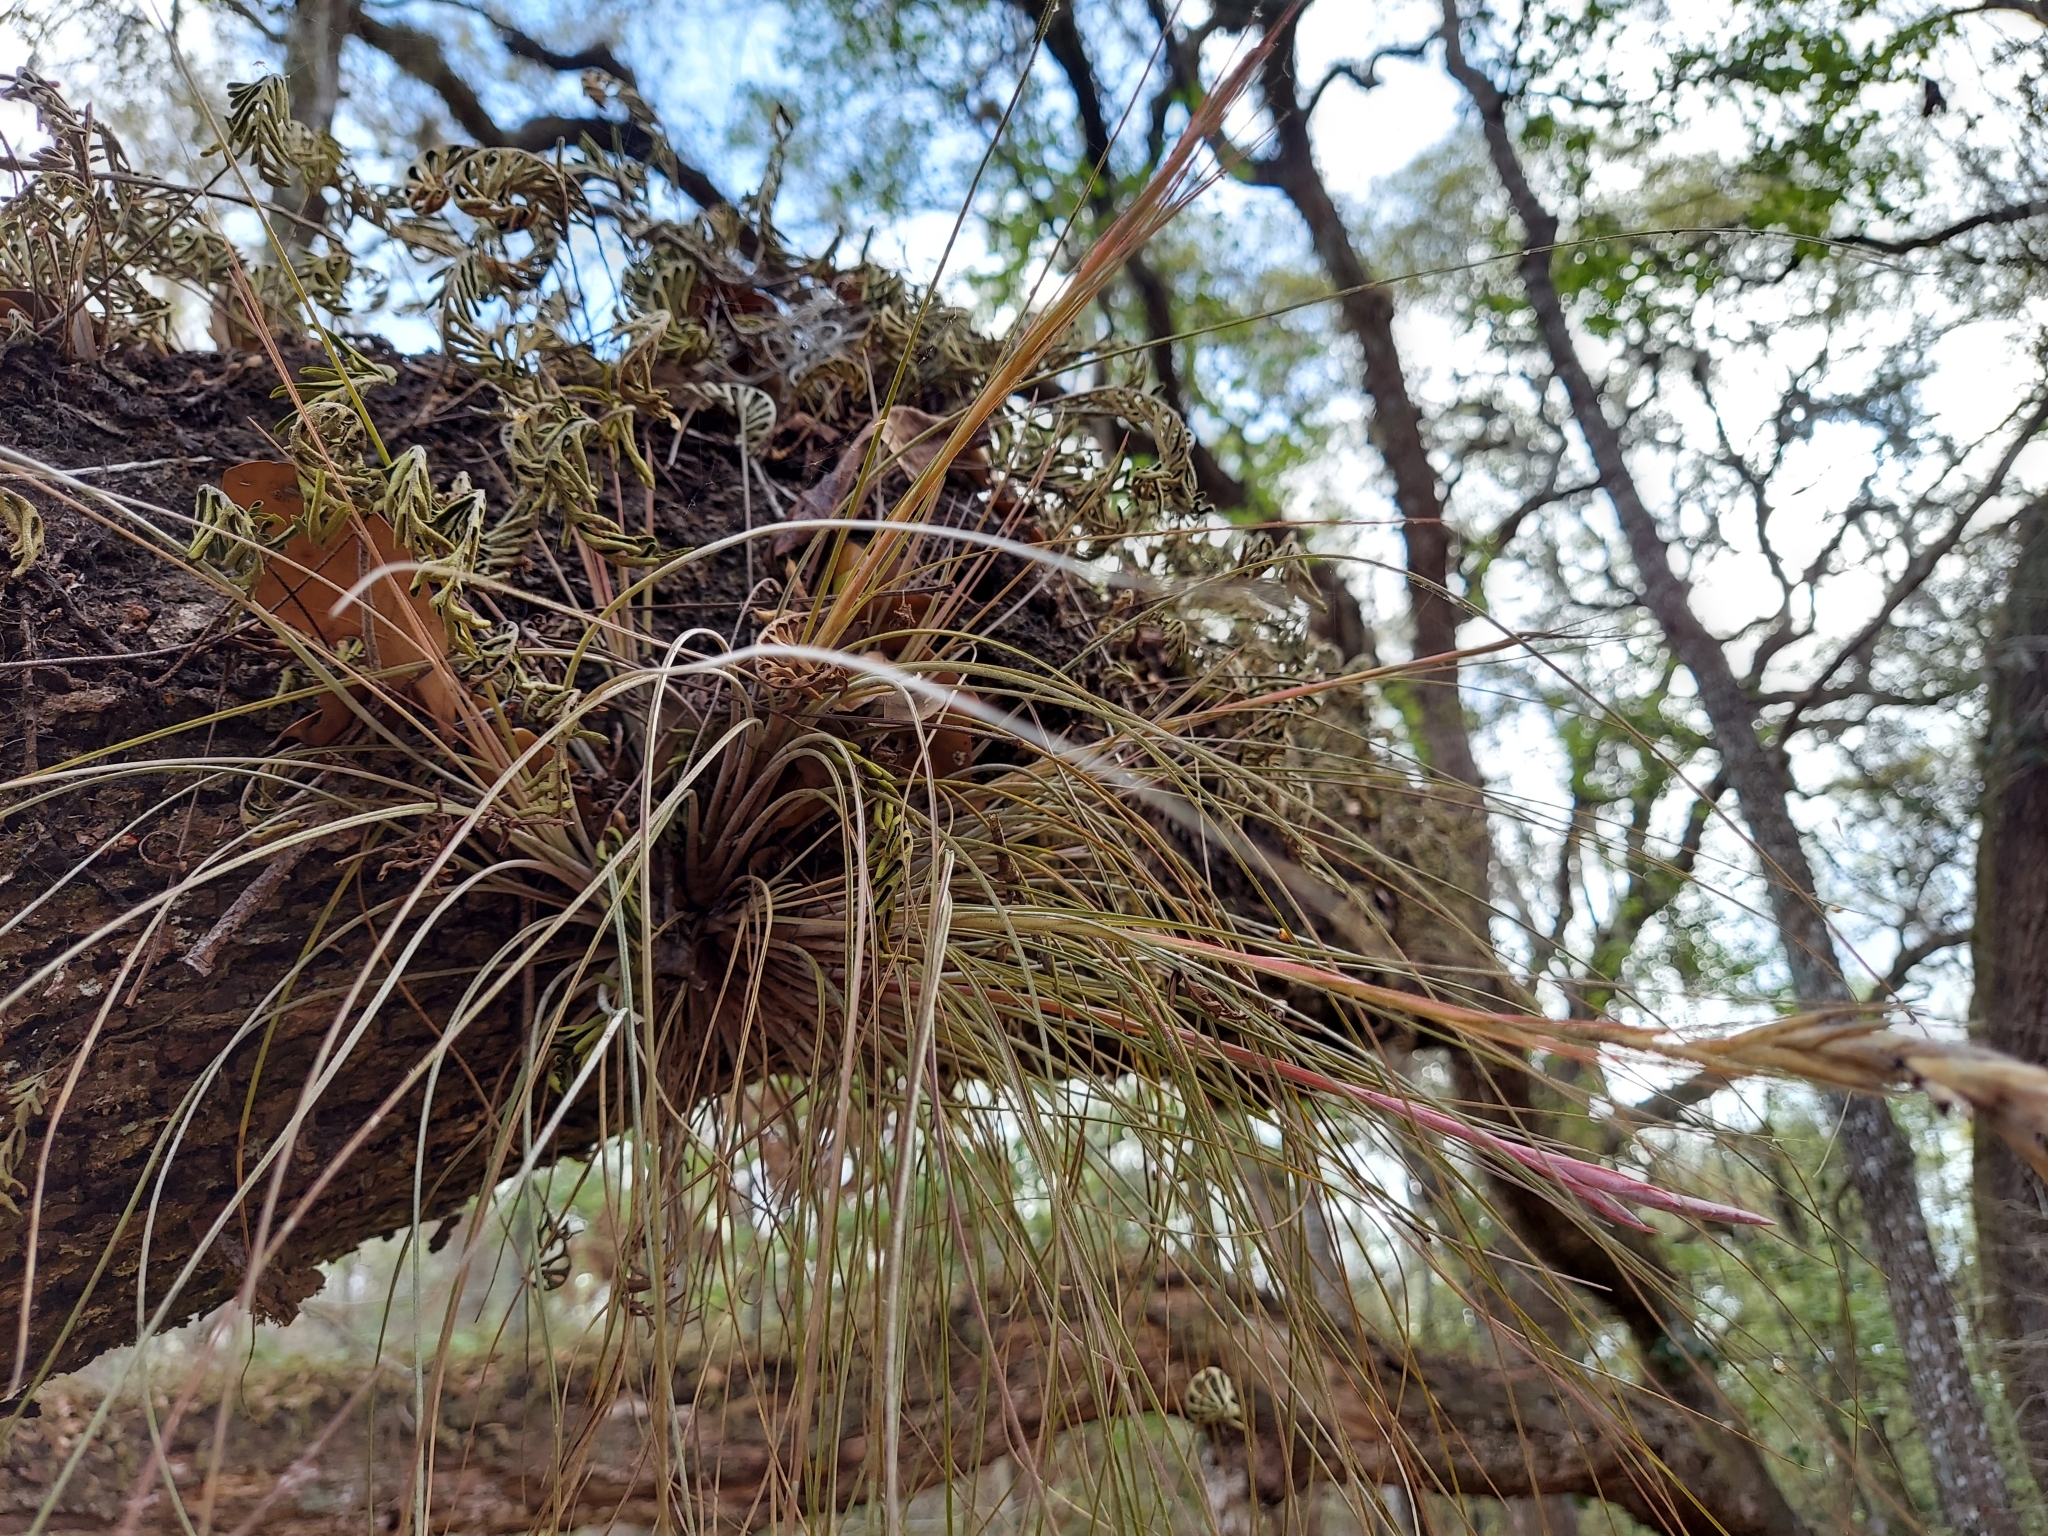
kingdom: Plantae
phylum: Tracheophyta
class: Liliopsida
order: Poales
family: Bromeliaceae
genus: Tillandsia
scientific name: Tillandsia bartramii
